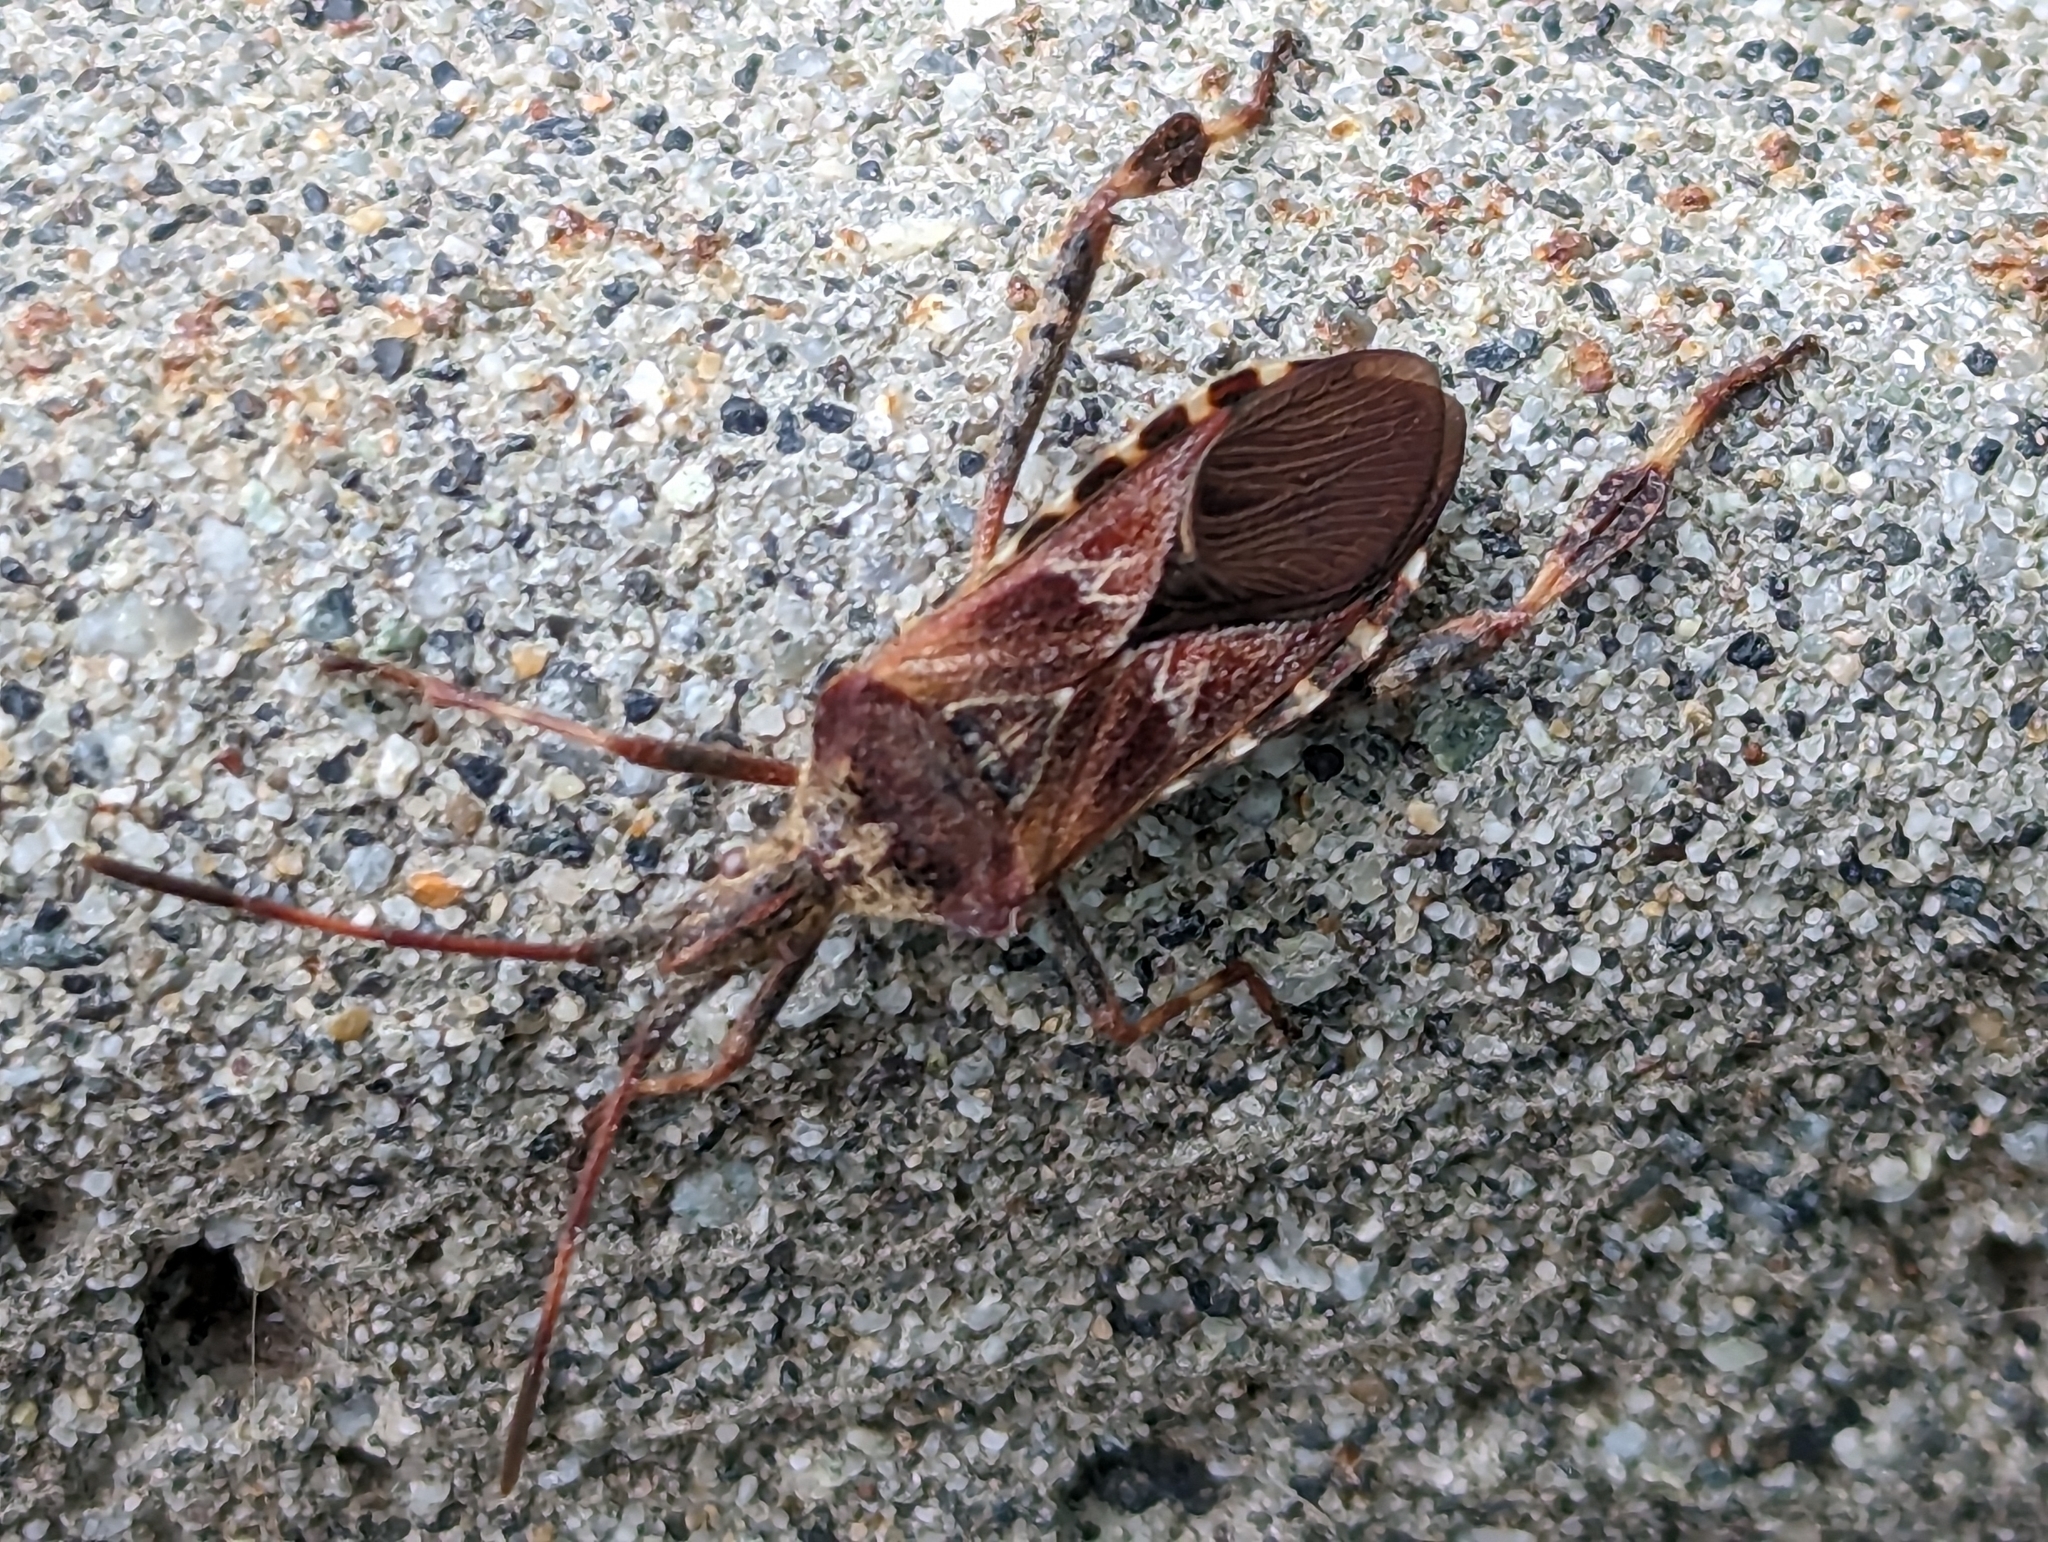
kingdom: Animalia
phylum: Arthropoda
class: Insecta
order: Hemiptera
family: Coreidae
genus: Leptoglossus
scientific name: Leptoglossus occidentalis
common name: Western conifer-seed bug
